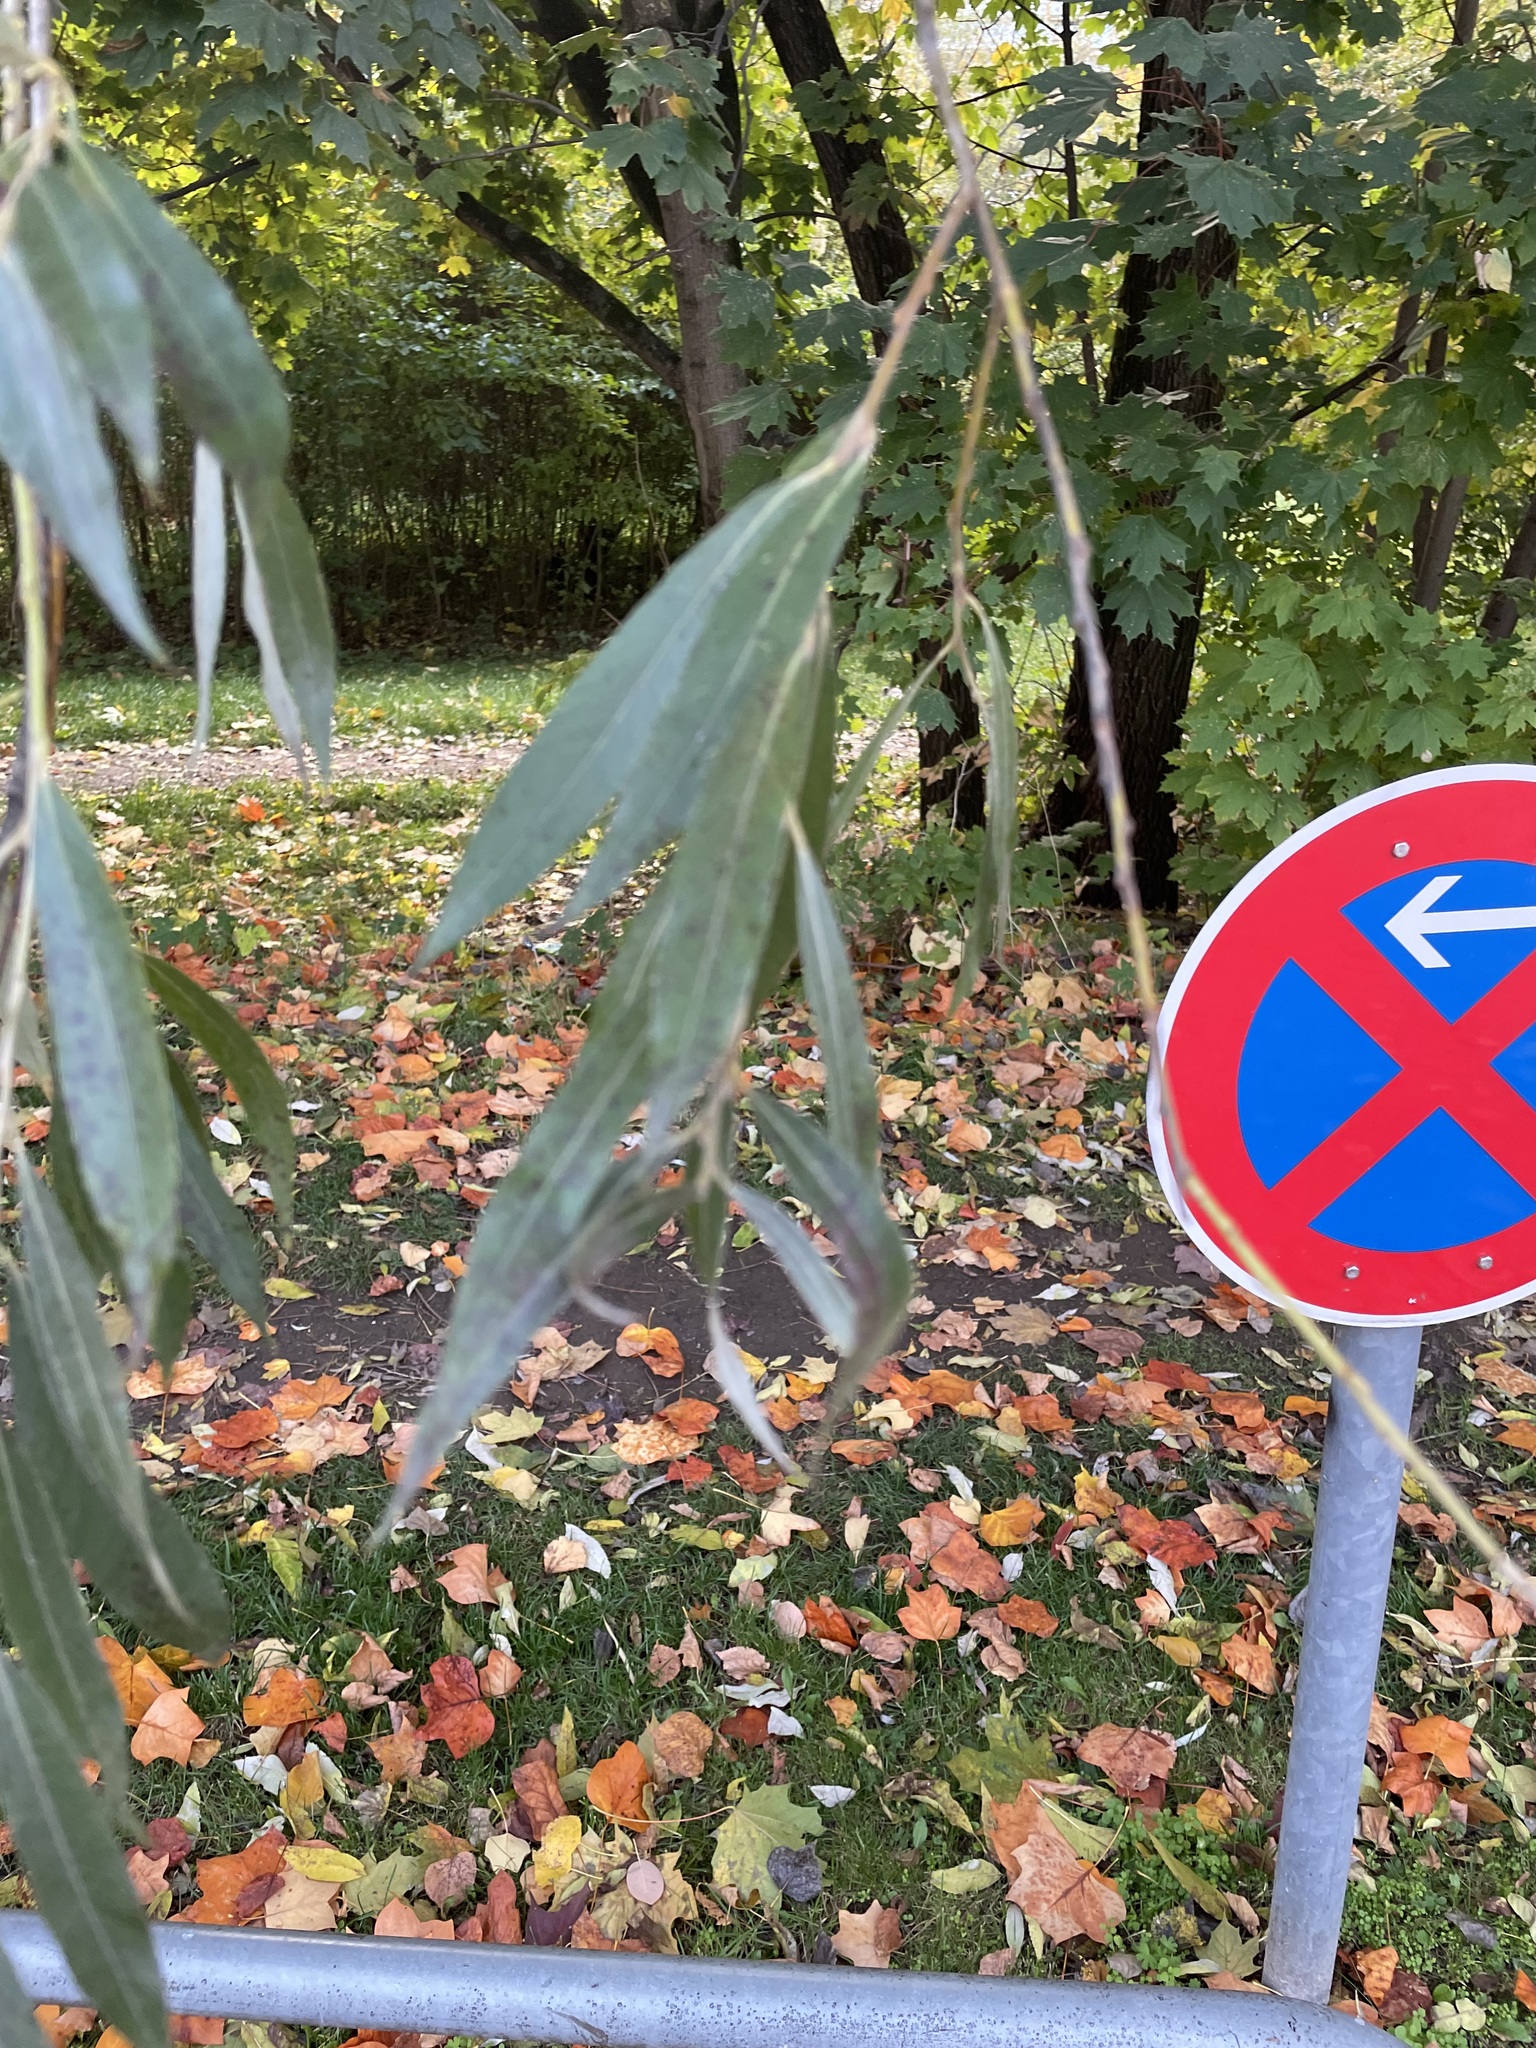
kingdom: Plantae
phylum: Tracheophyta
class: Magnoliopsida
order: Malpighiales
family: Salicaceae
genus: Salix
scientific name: Salix alba
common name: White willow
